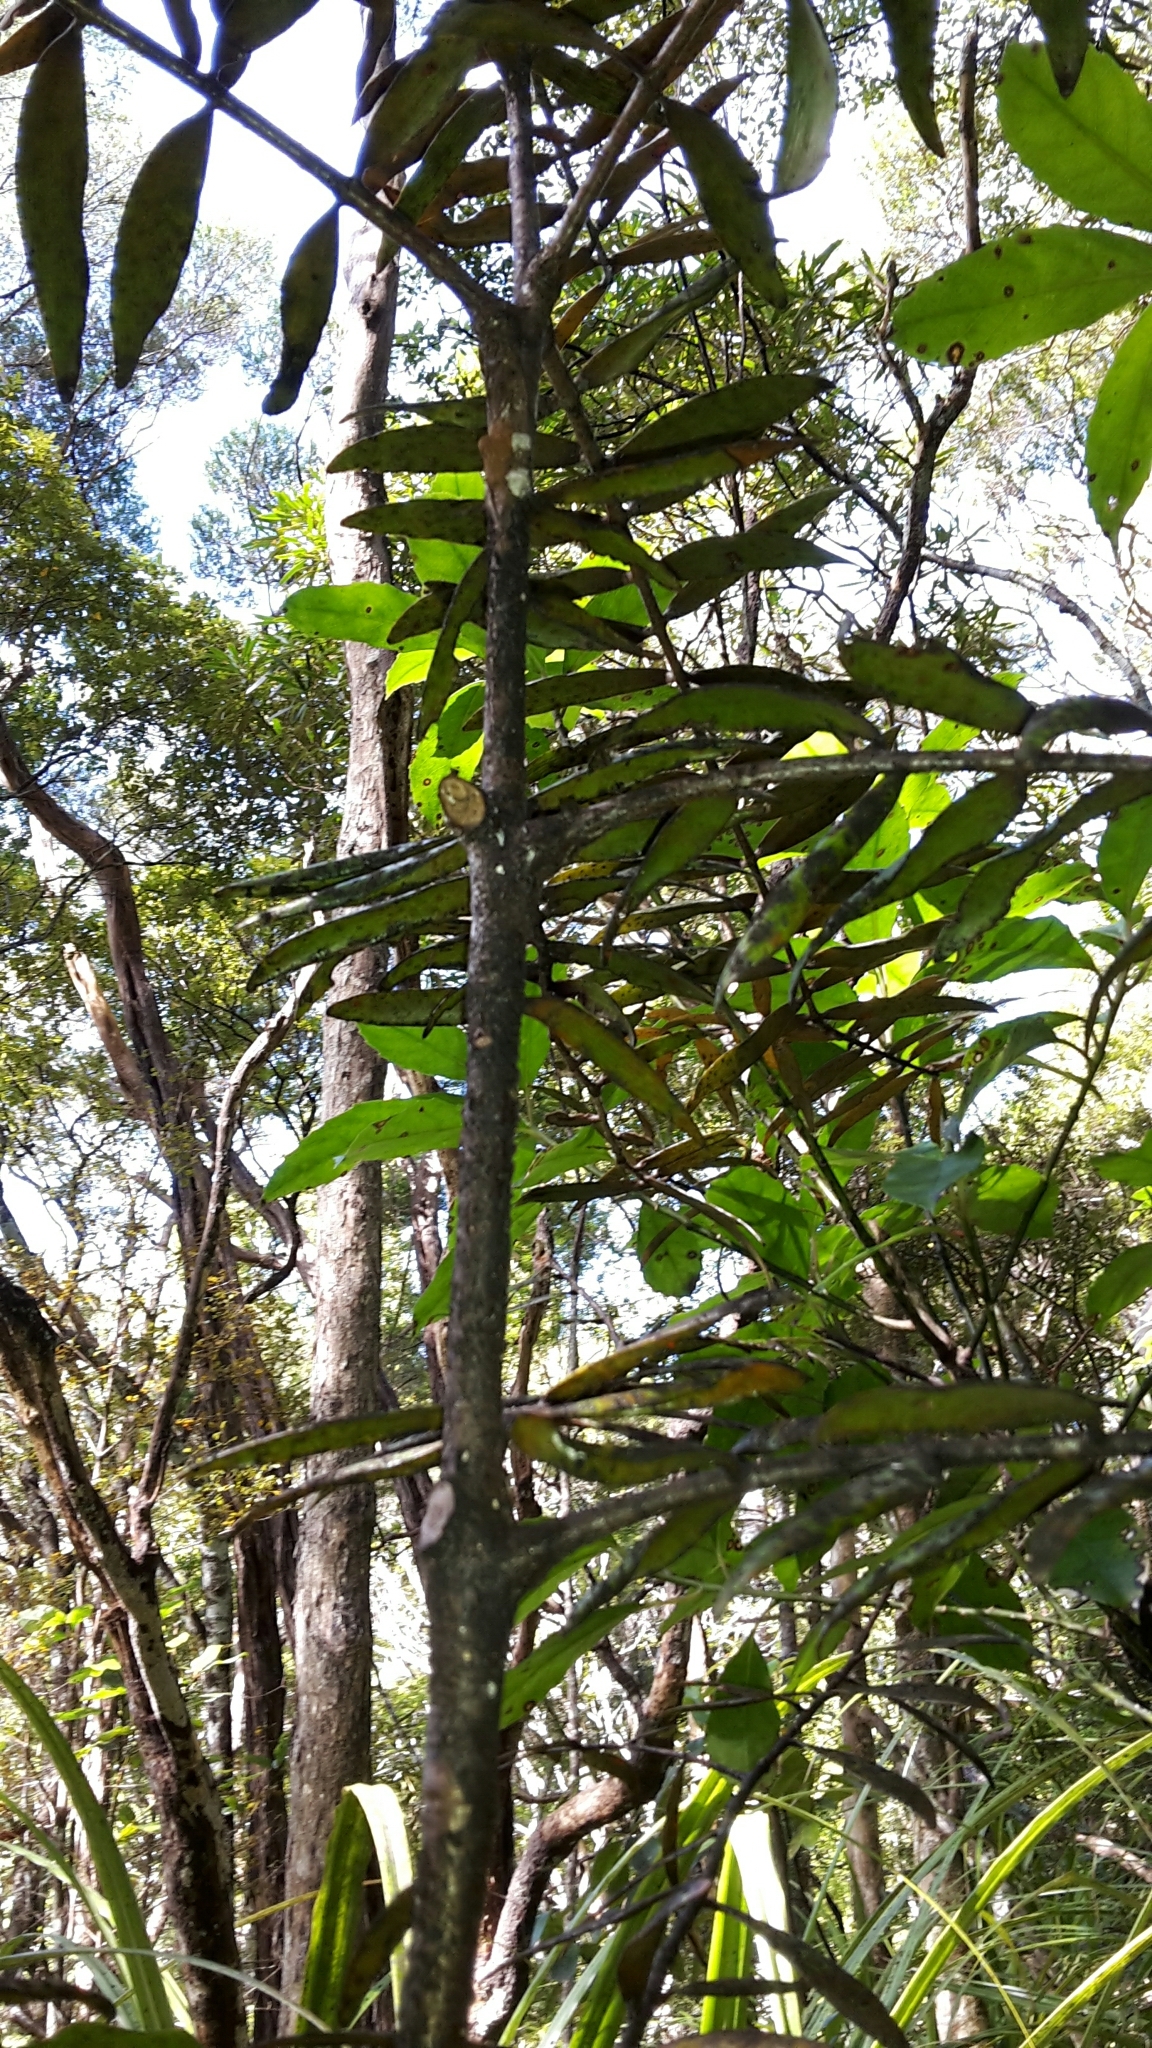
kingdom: Plantae
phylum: Tracheophyta
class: Pinopsida
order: Pinales
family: Araucariaceae
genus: Agathis
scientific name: Agathis australis
